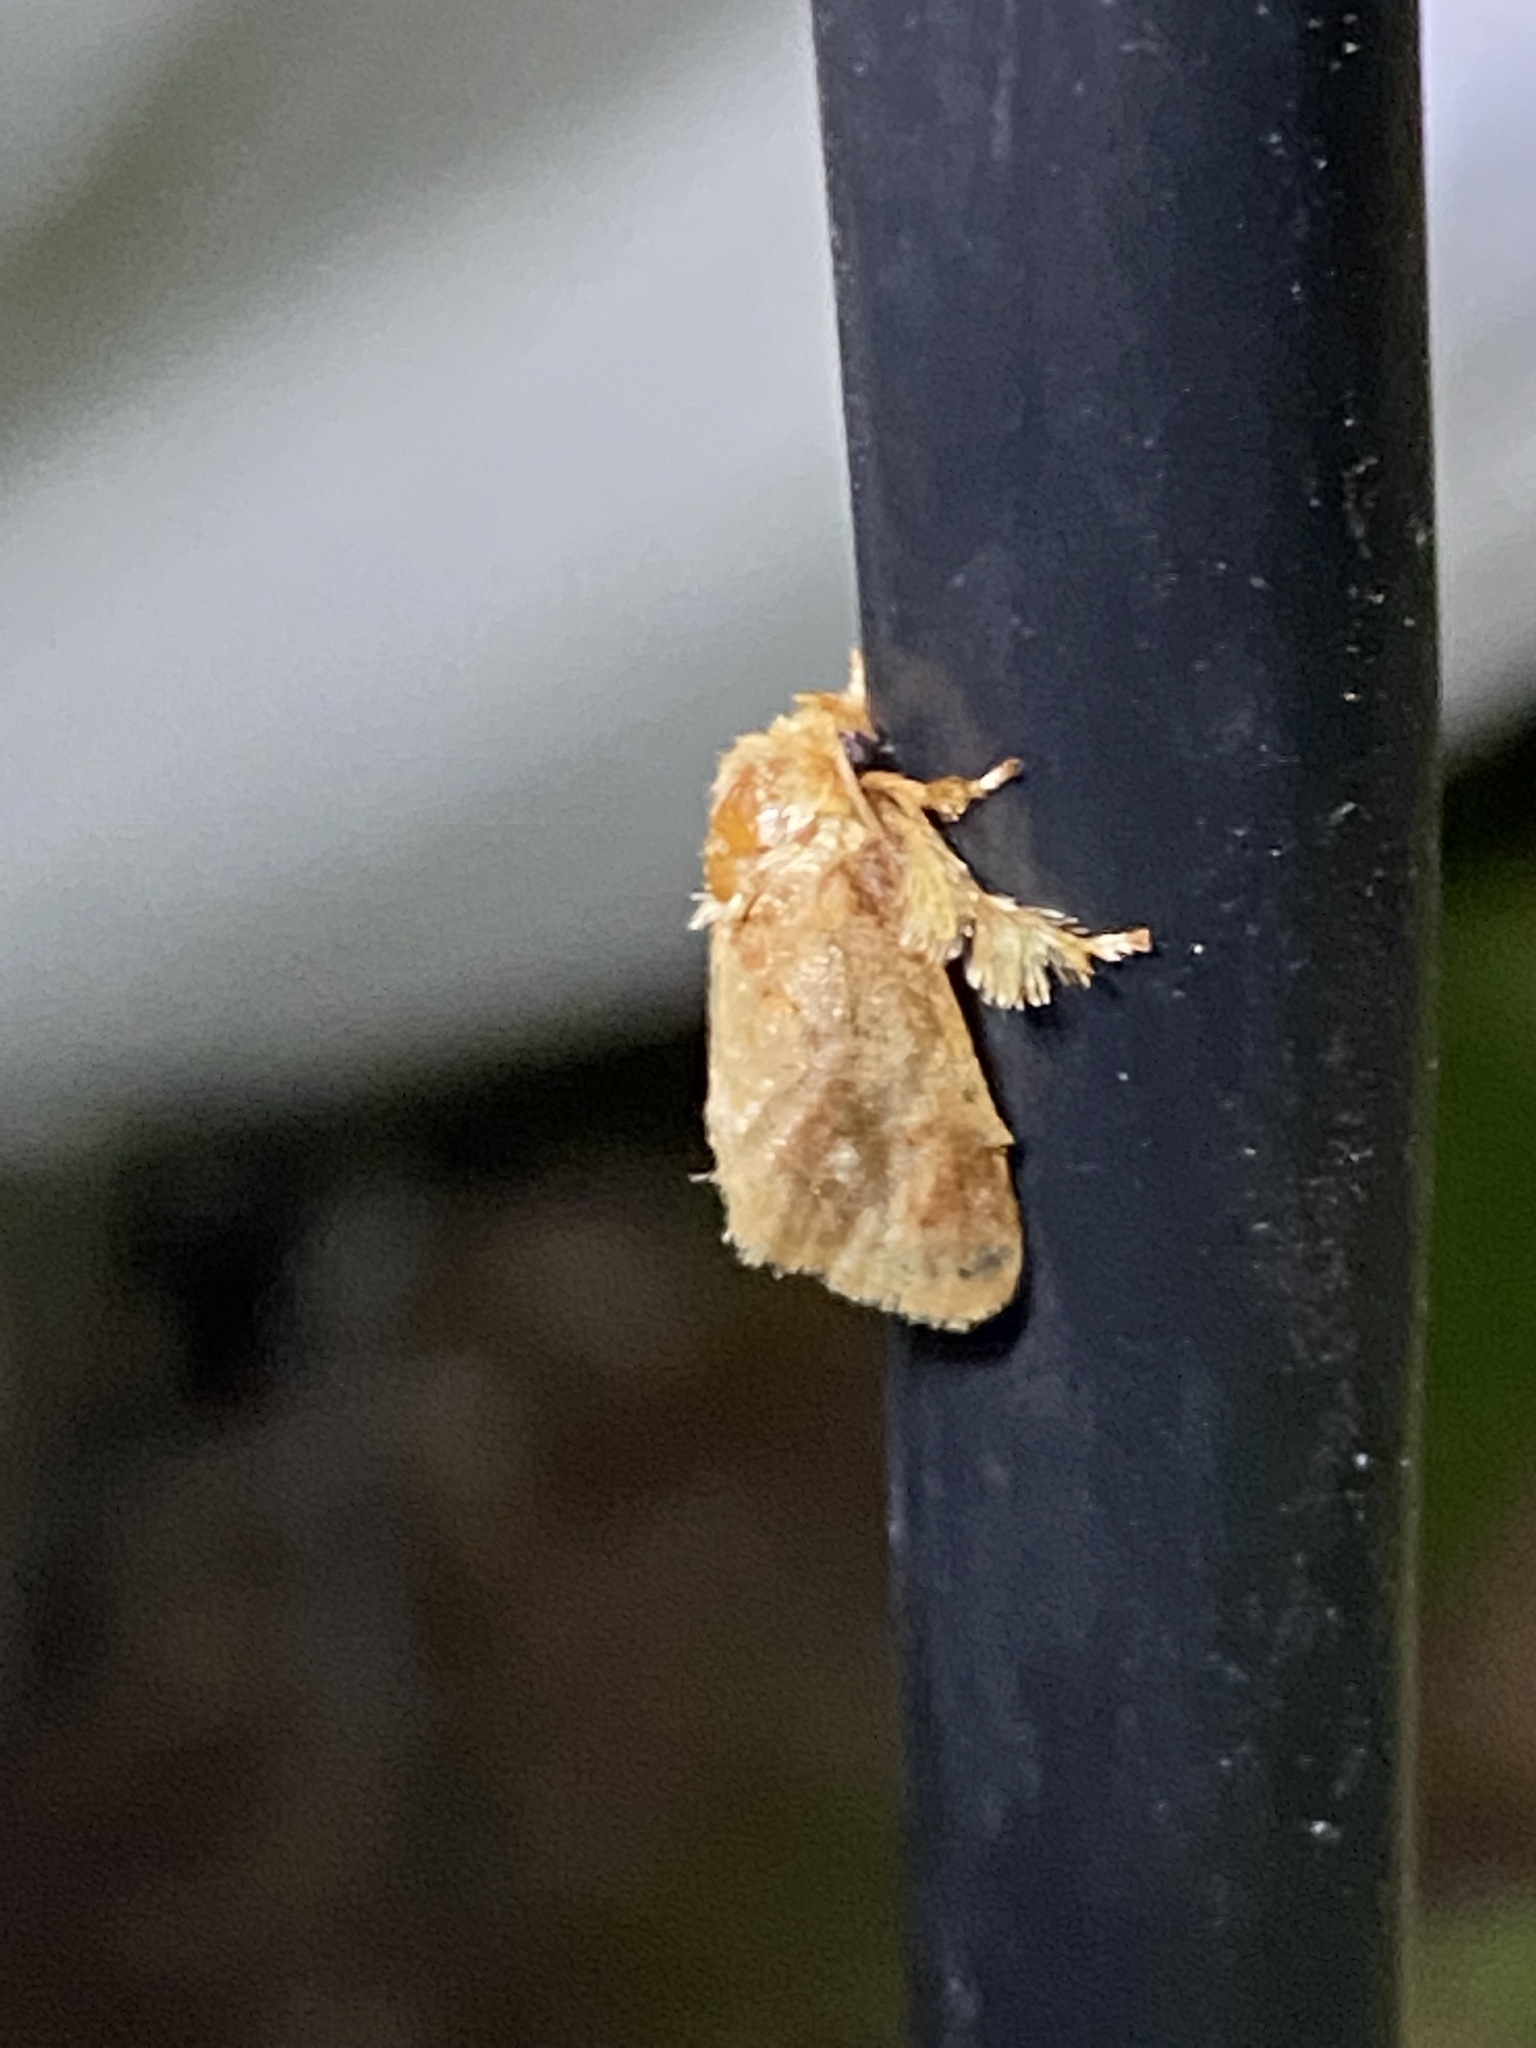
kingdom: Animalia
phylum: Arthropoda
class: Insecta
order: Lepidoptera
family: Limacodidae
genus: Isochaetes
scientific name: Isochaetes beutenmuelleri
